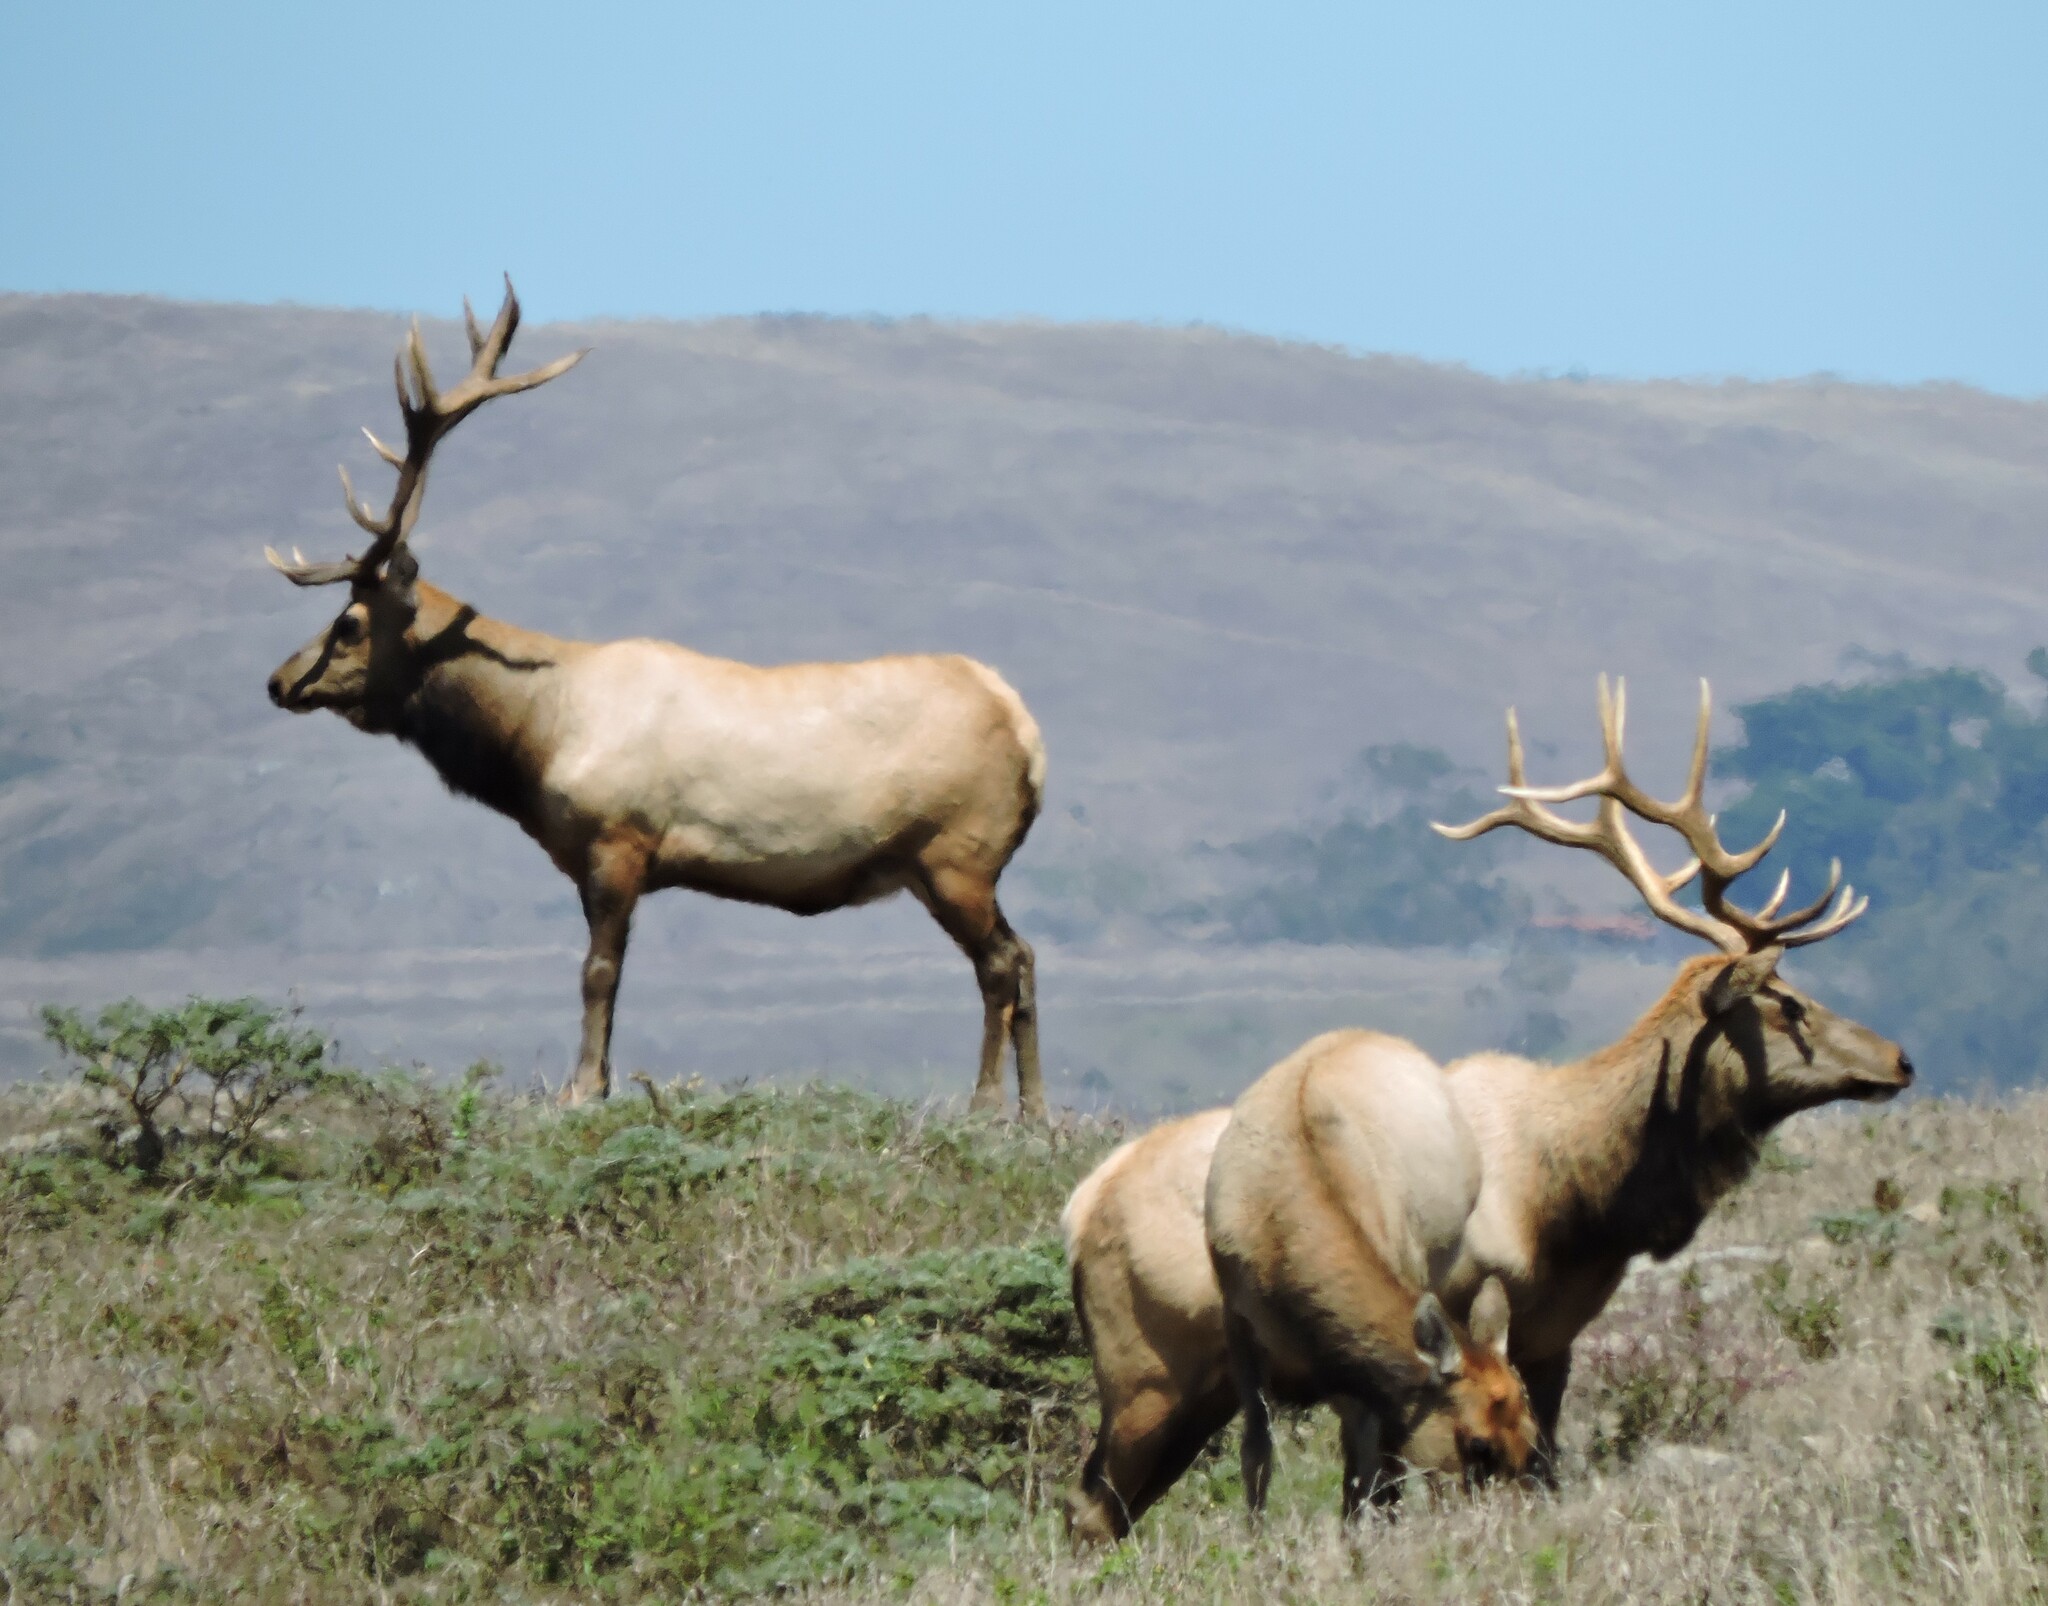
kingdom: Animalia
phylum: Chordata
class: Mammalia
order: Artiodactyla
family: Cervidae
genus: Cervus
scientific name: Cervus elaphus
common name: Red deer
